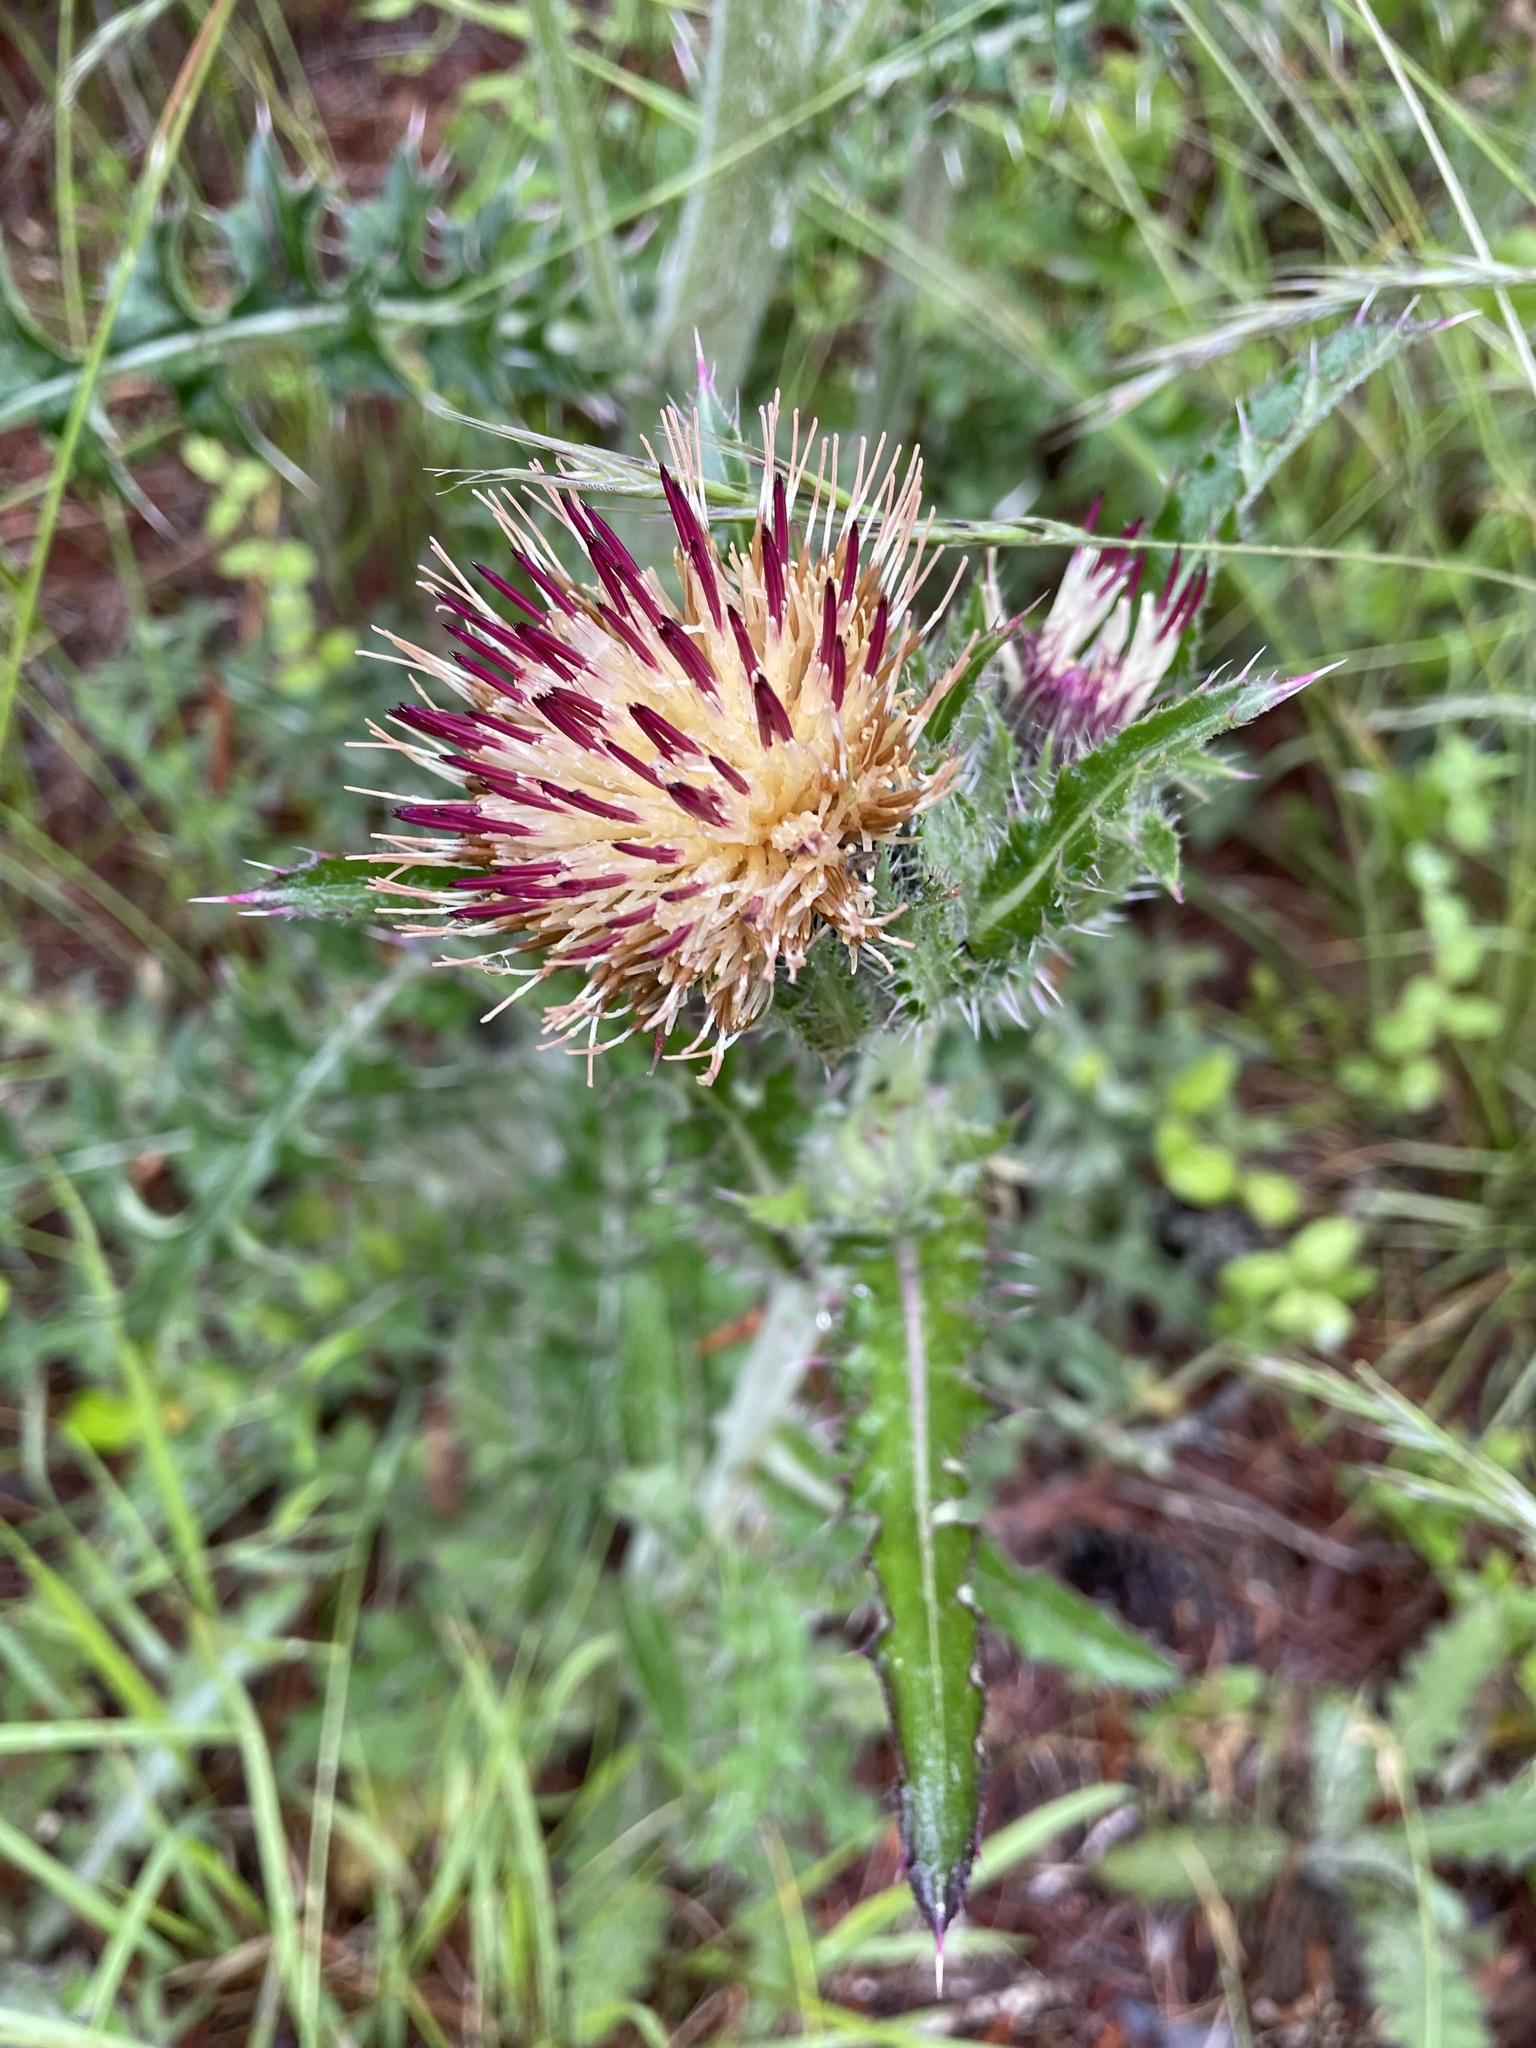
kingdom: Plantae
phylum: Tracheophyta
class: Magnoliopsida
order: Asterales
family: Asteraceae
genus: Cirsium
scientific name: Cirsium horridulum
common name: Bristly thistle
